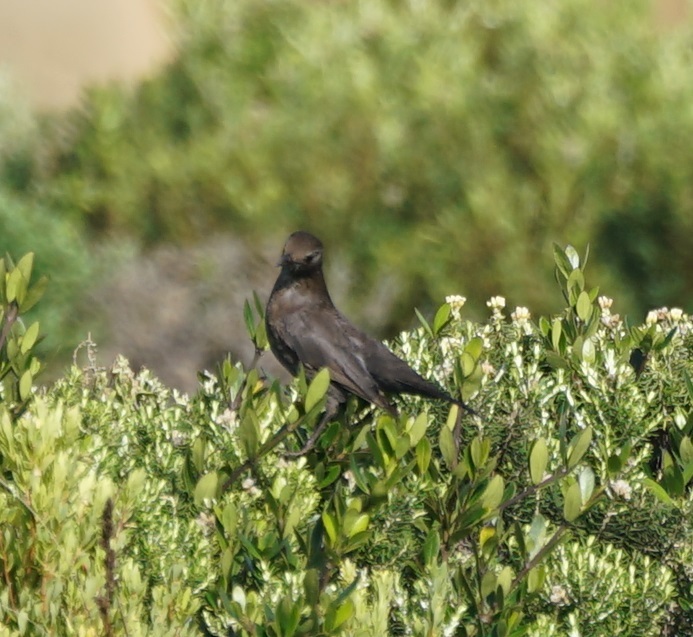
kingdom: Animalia
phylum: Chordata
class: Aves
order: Passeriformes
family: Turdidae
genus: Turdus
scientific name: Turdus merula
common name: Common blackbird
